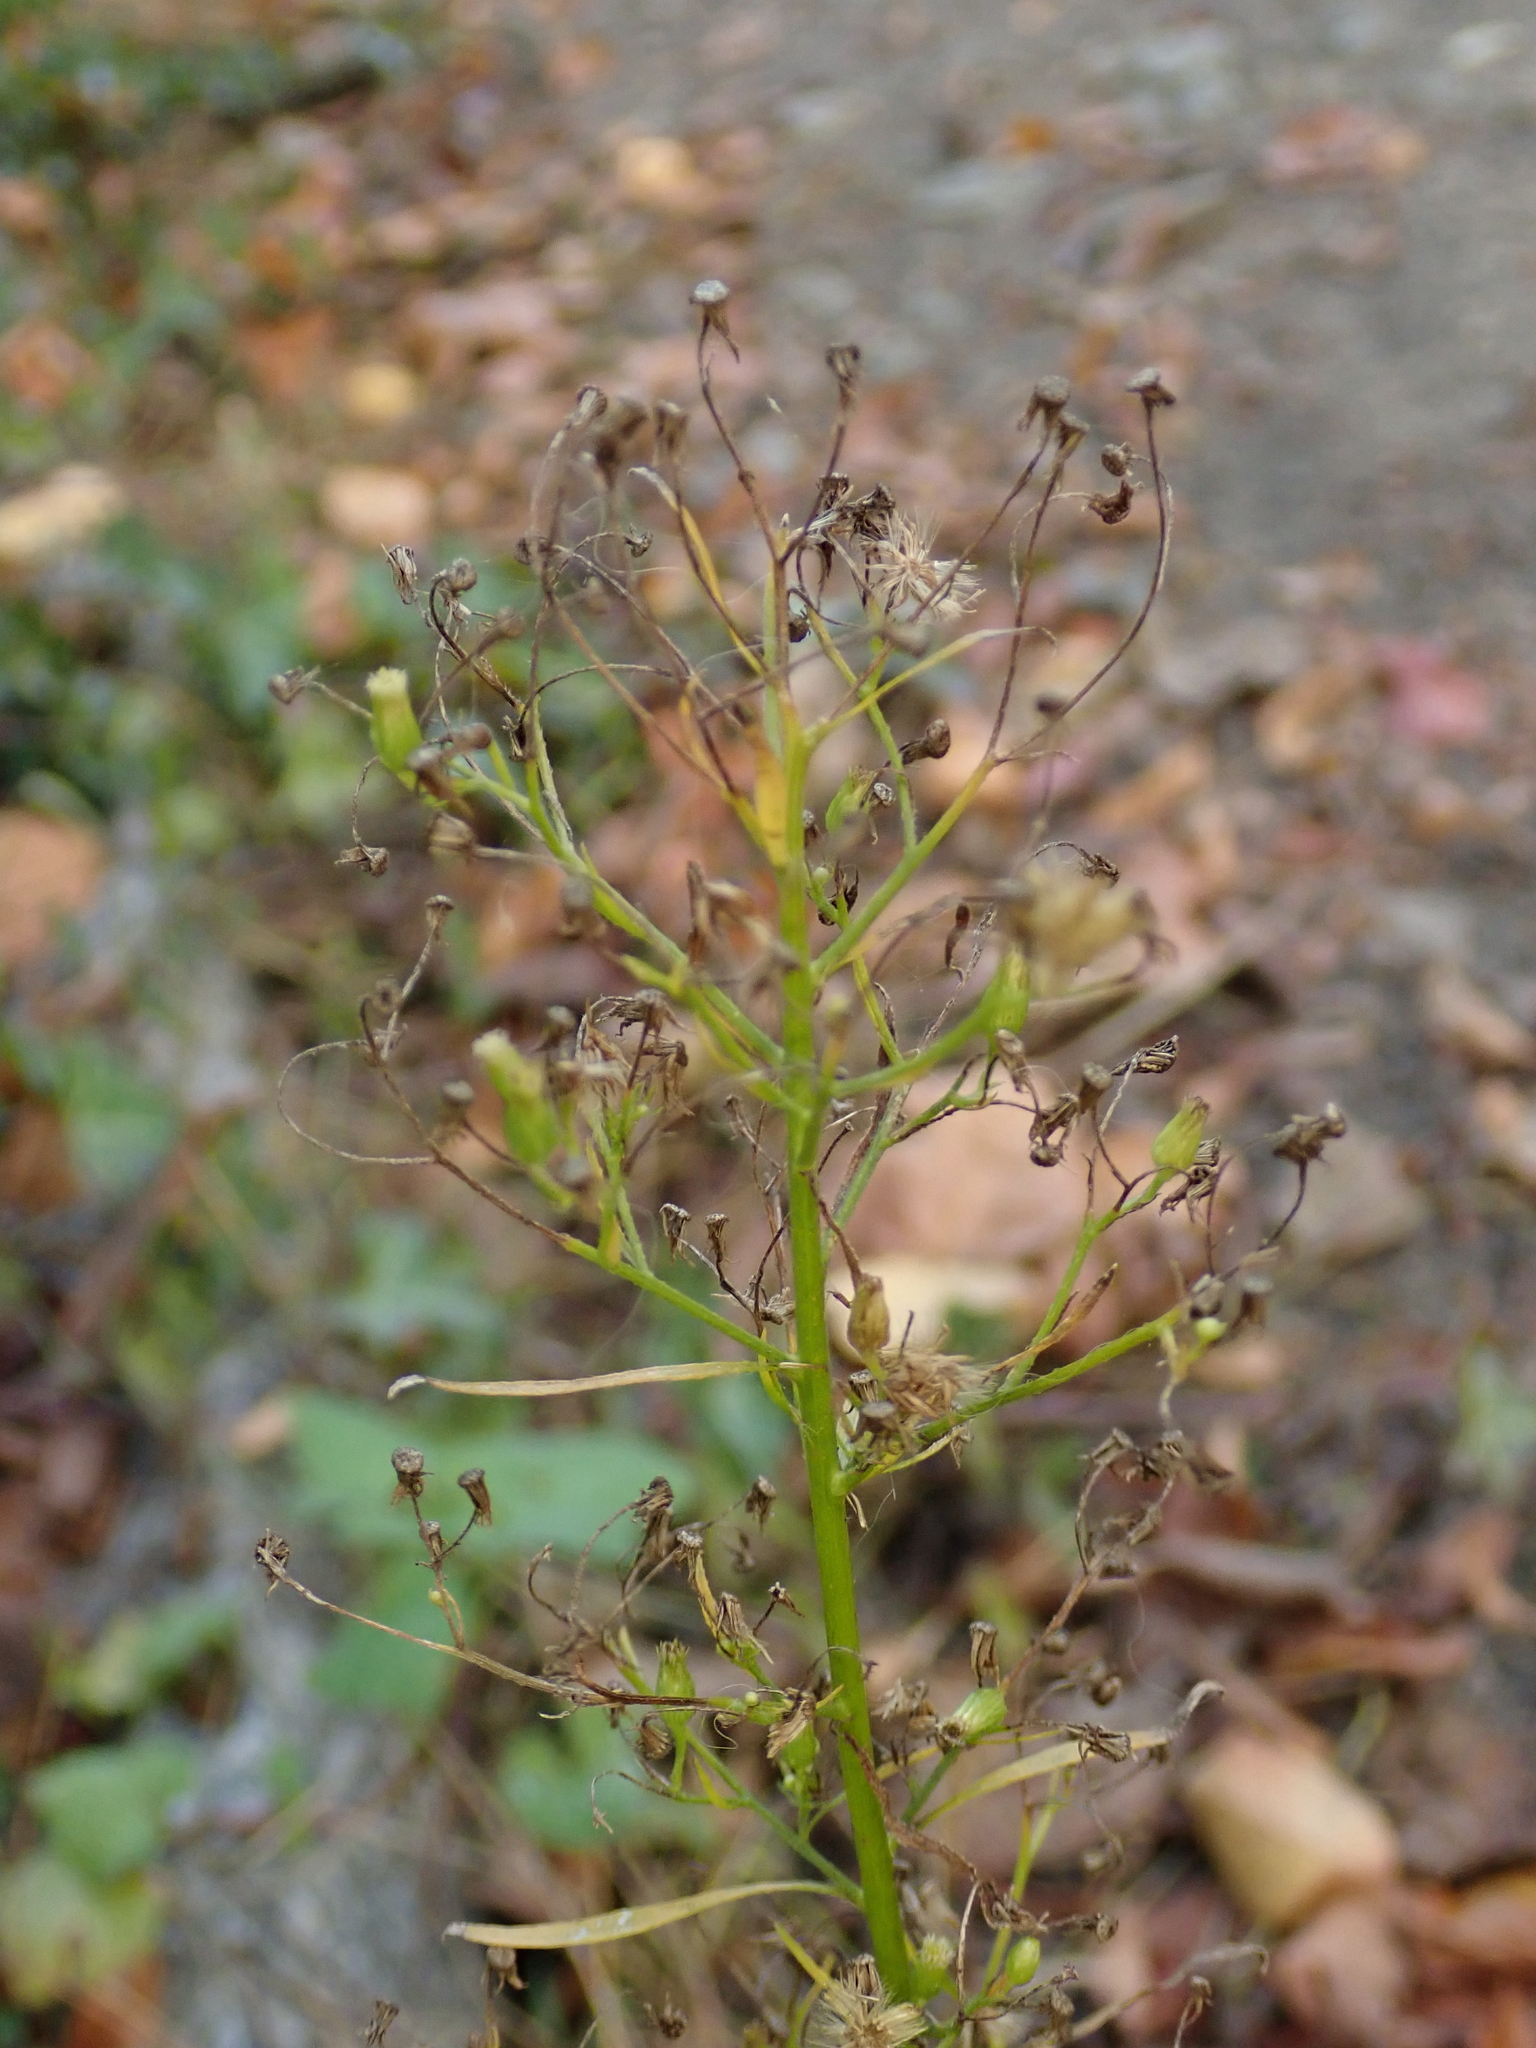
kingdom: Plantae
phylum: Tracheophyta
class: Magnoliopsida
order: Asterales
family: Asteraceae
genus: Erigeron
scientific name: Erigeron canadensis
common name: Canadian fleabane
